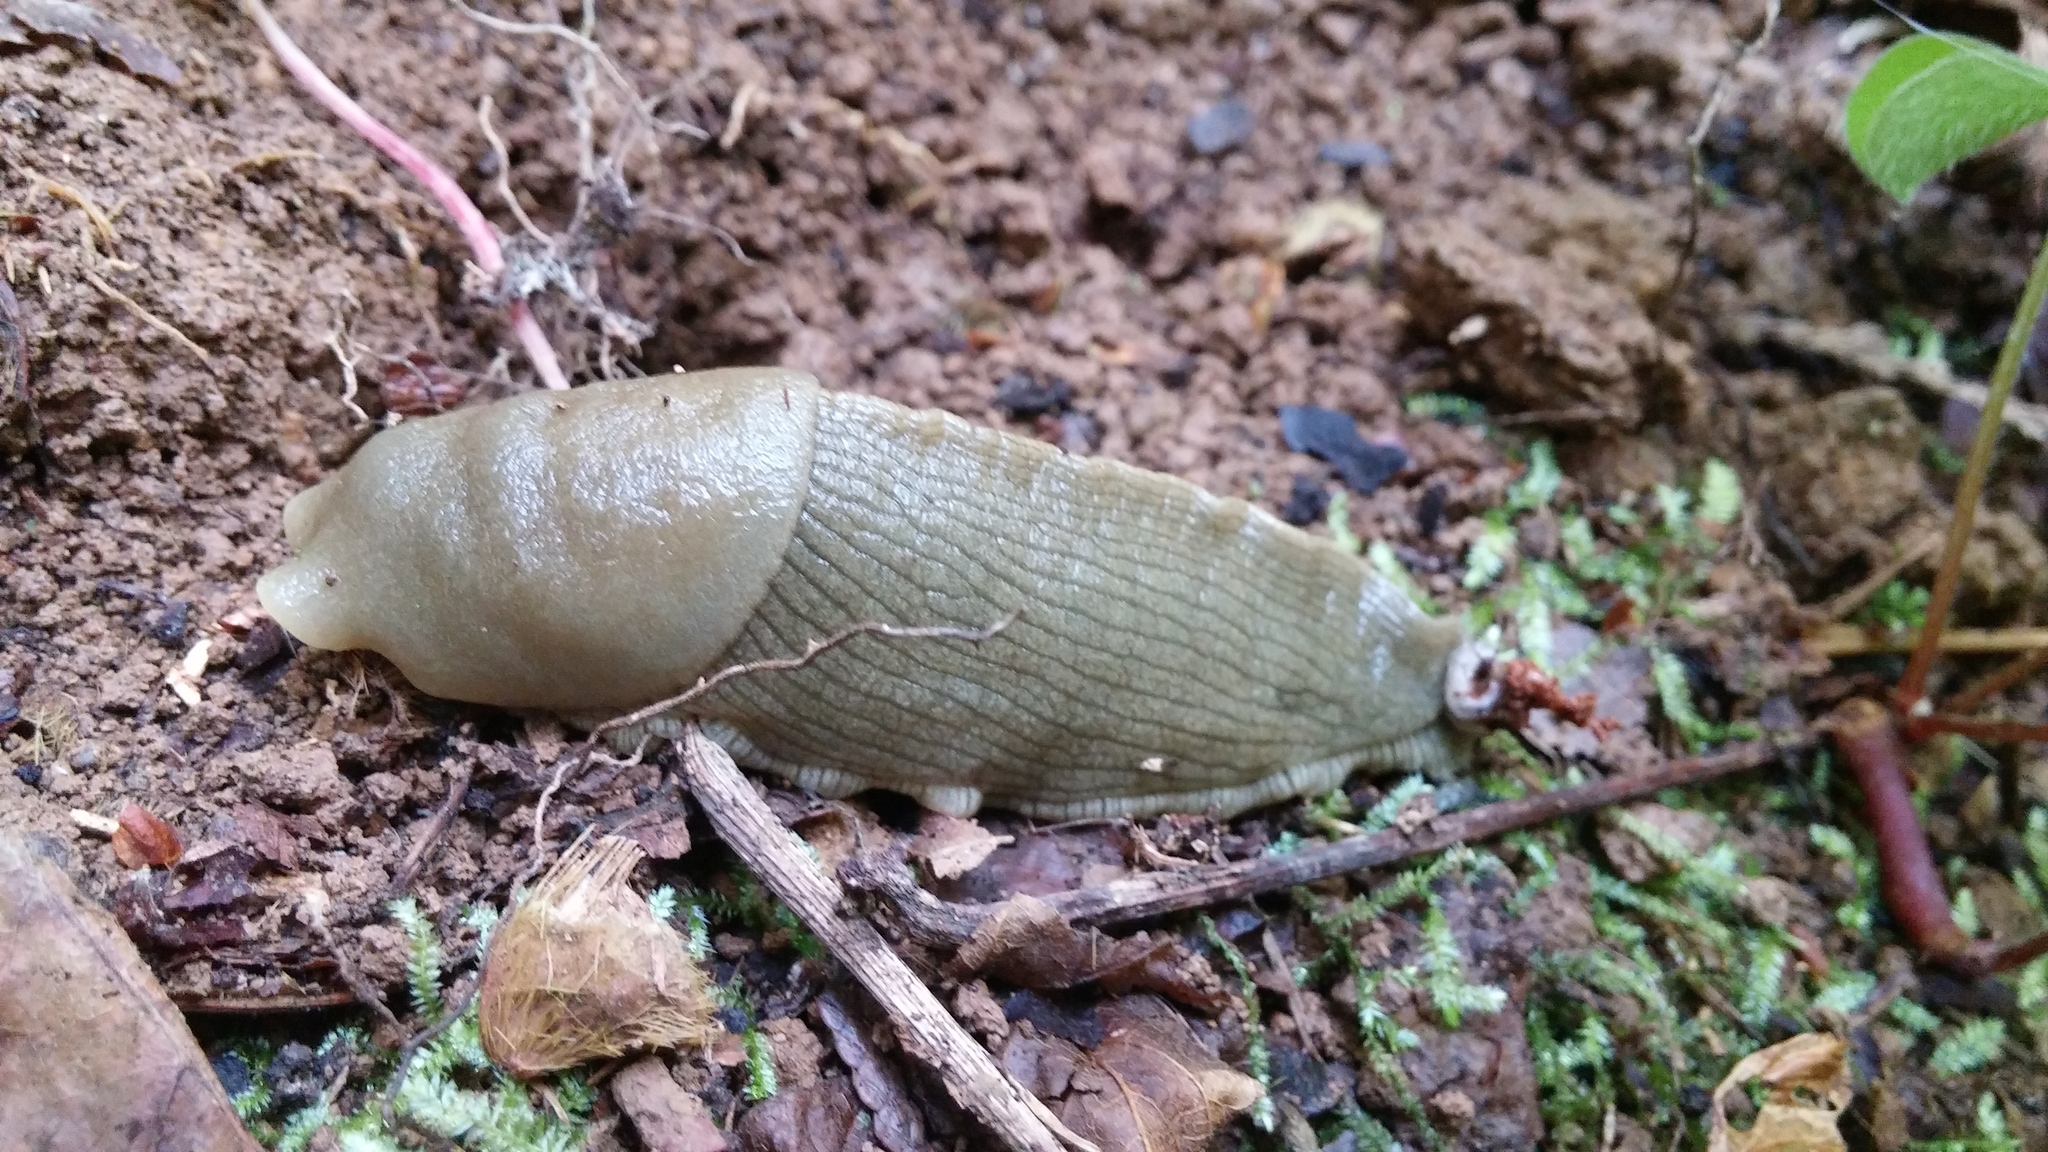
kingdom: Animalia
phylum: Mollusca
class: Gastropoda
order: Stylommatophora
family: Ariolimacidae
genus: Ariolimax
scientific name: Ariolimax columbianus
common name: Pacific banana slug
